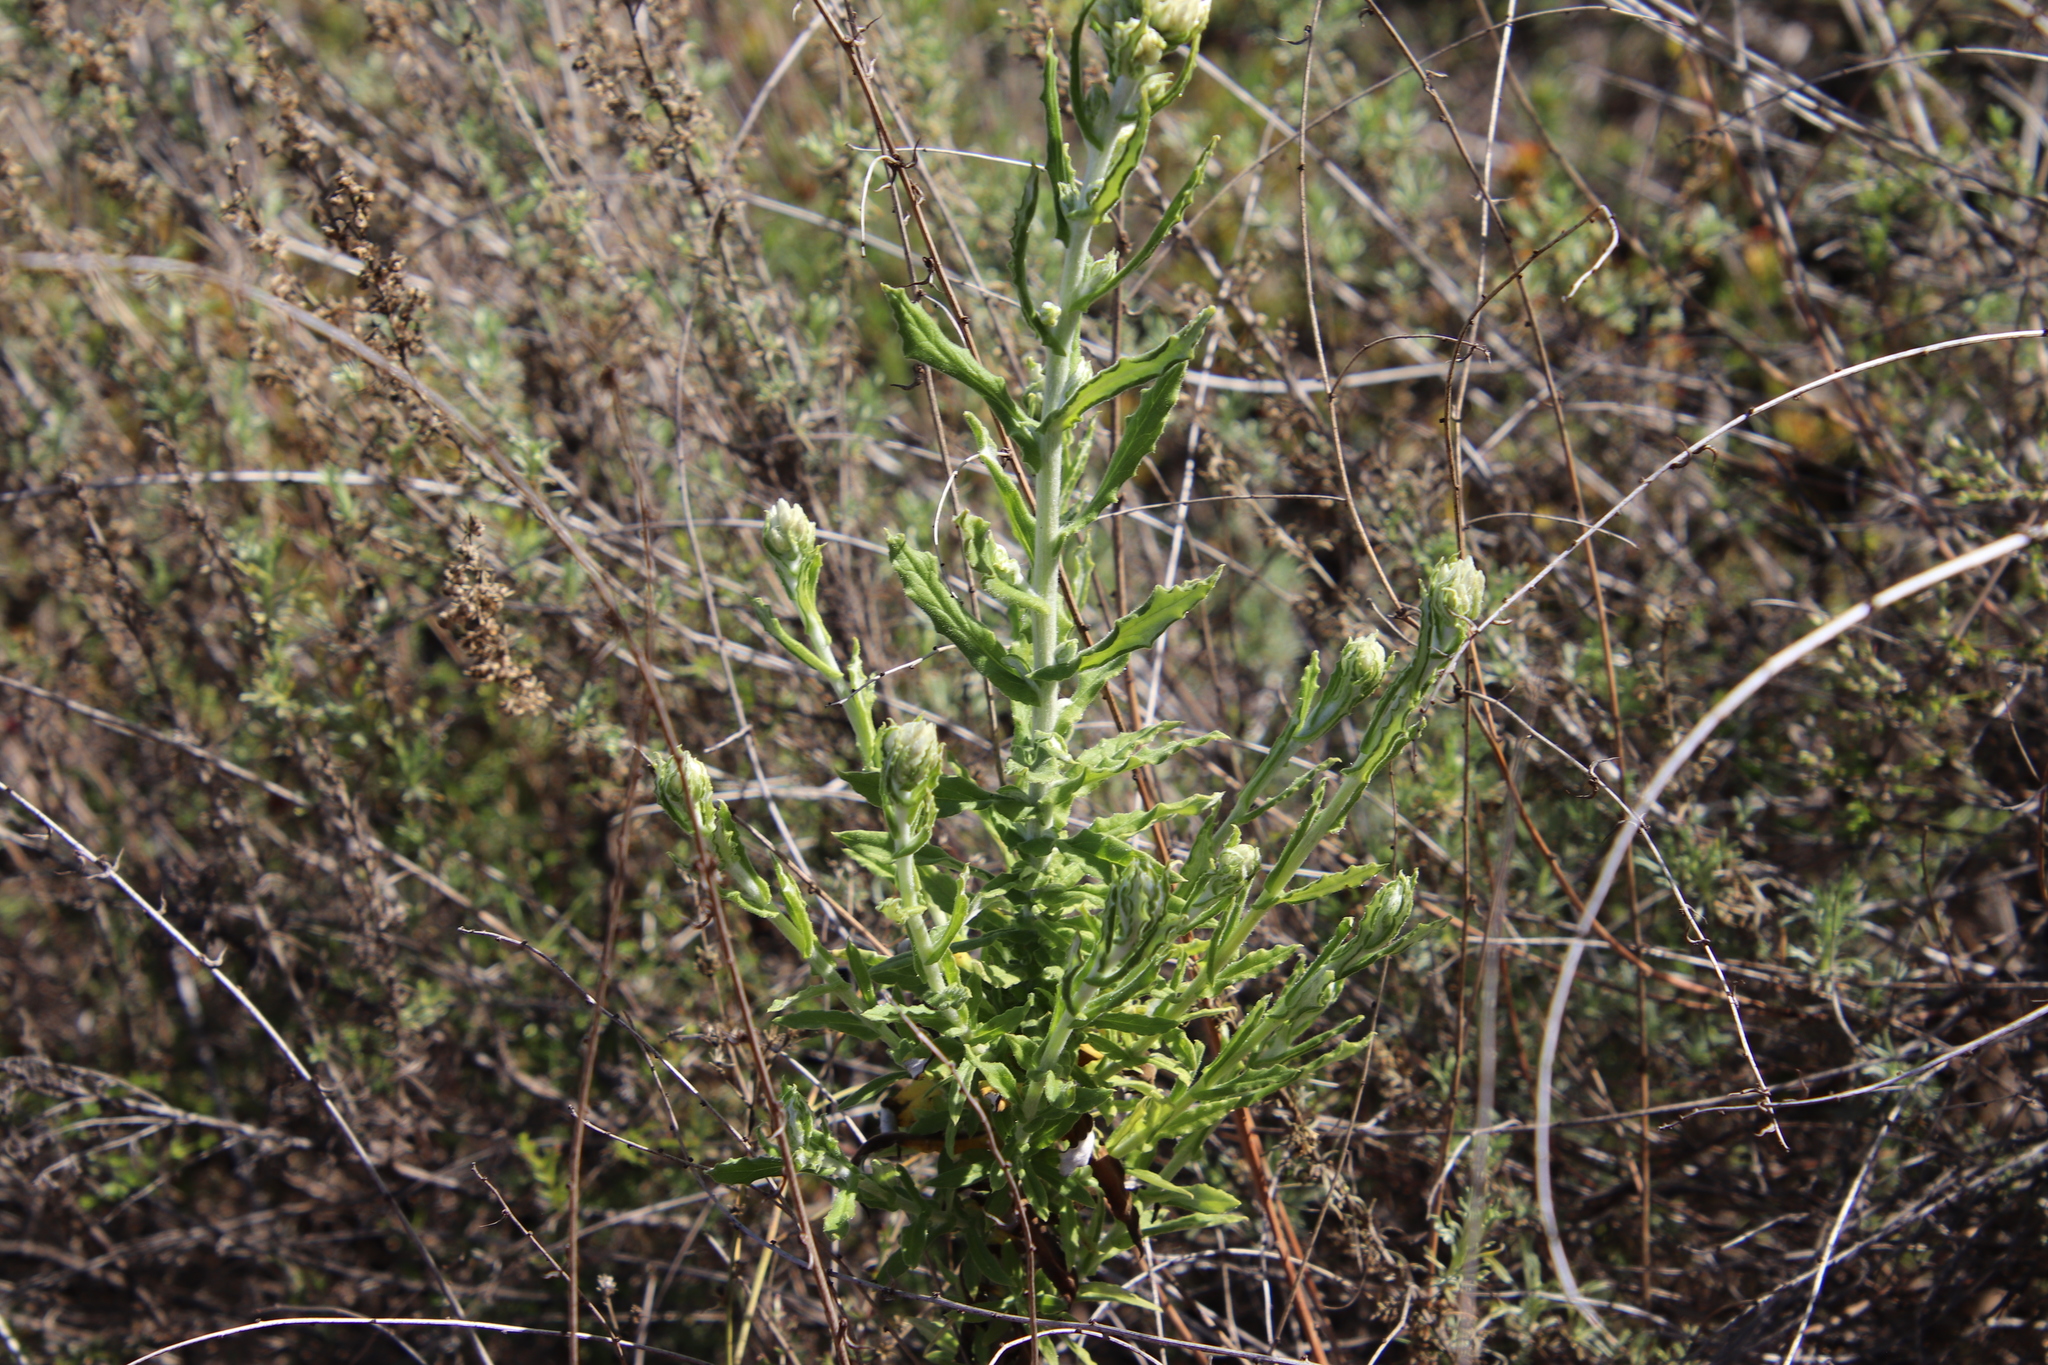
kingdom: Plantae
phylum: Tracheophyta
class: Magnoliopsida
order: Asterales
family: Asteraceae
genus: Pseudognaphalium
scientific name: Pseudognaphalium biolettii
